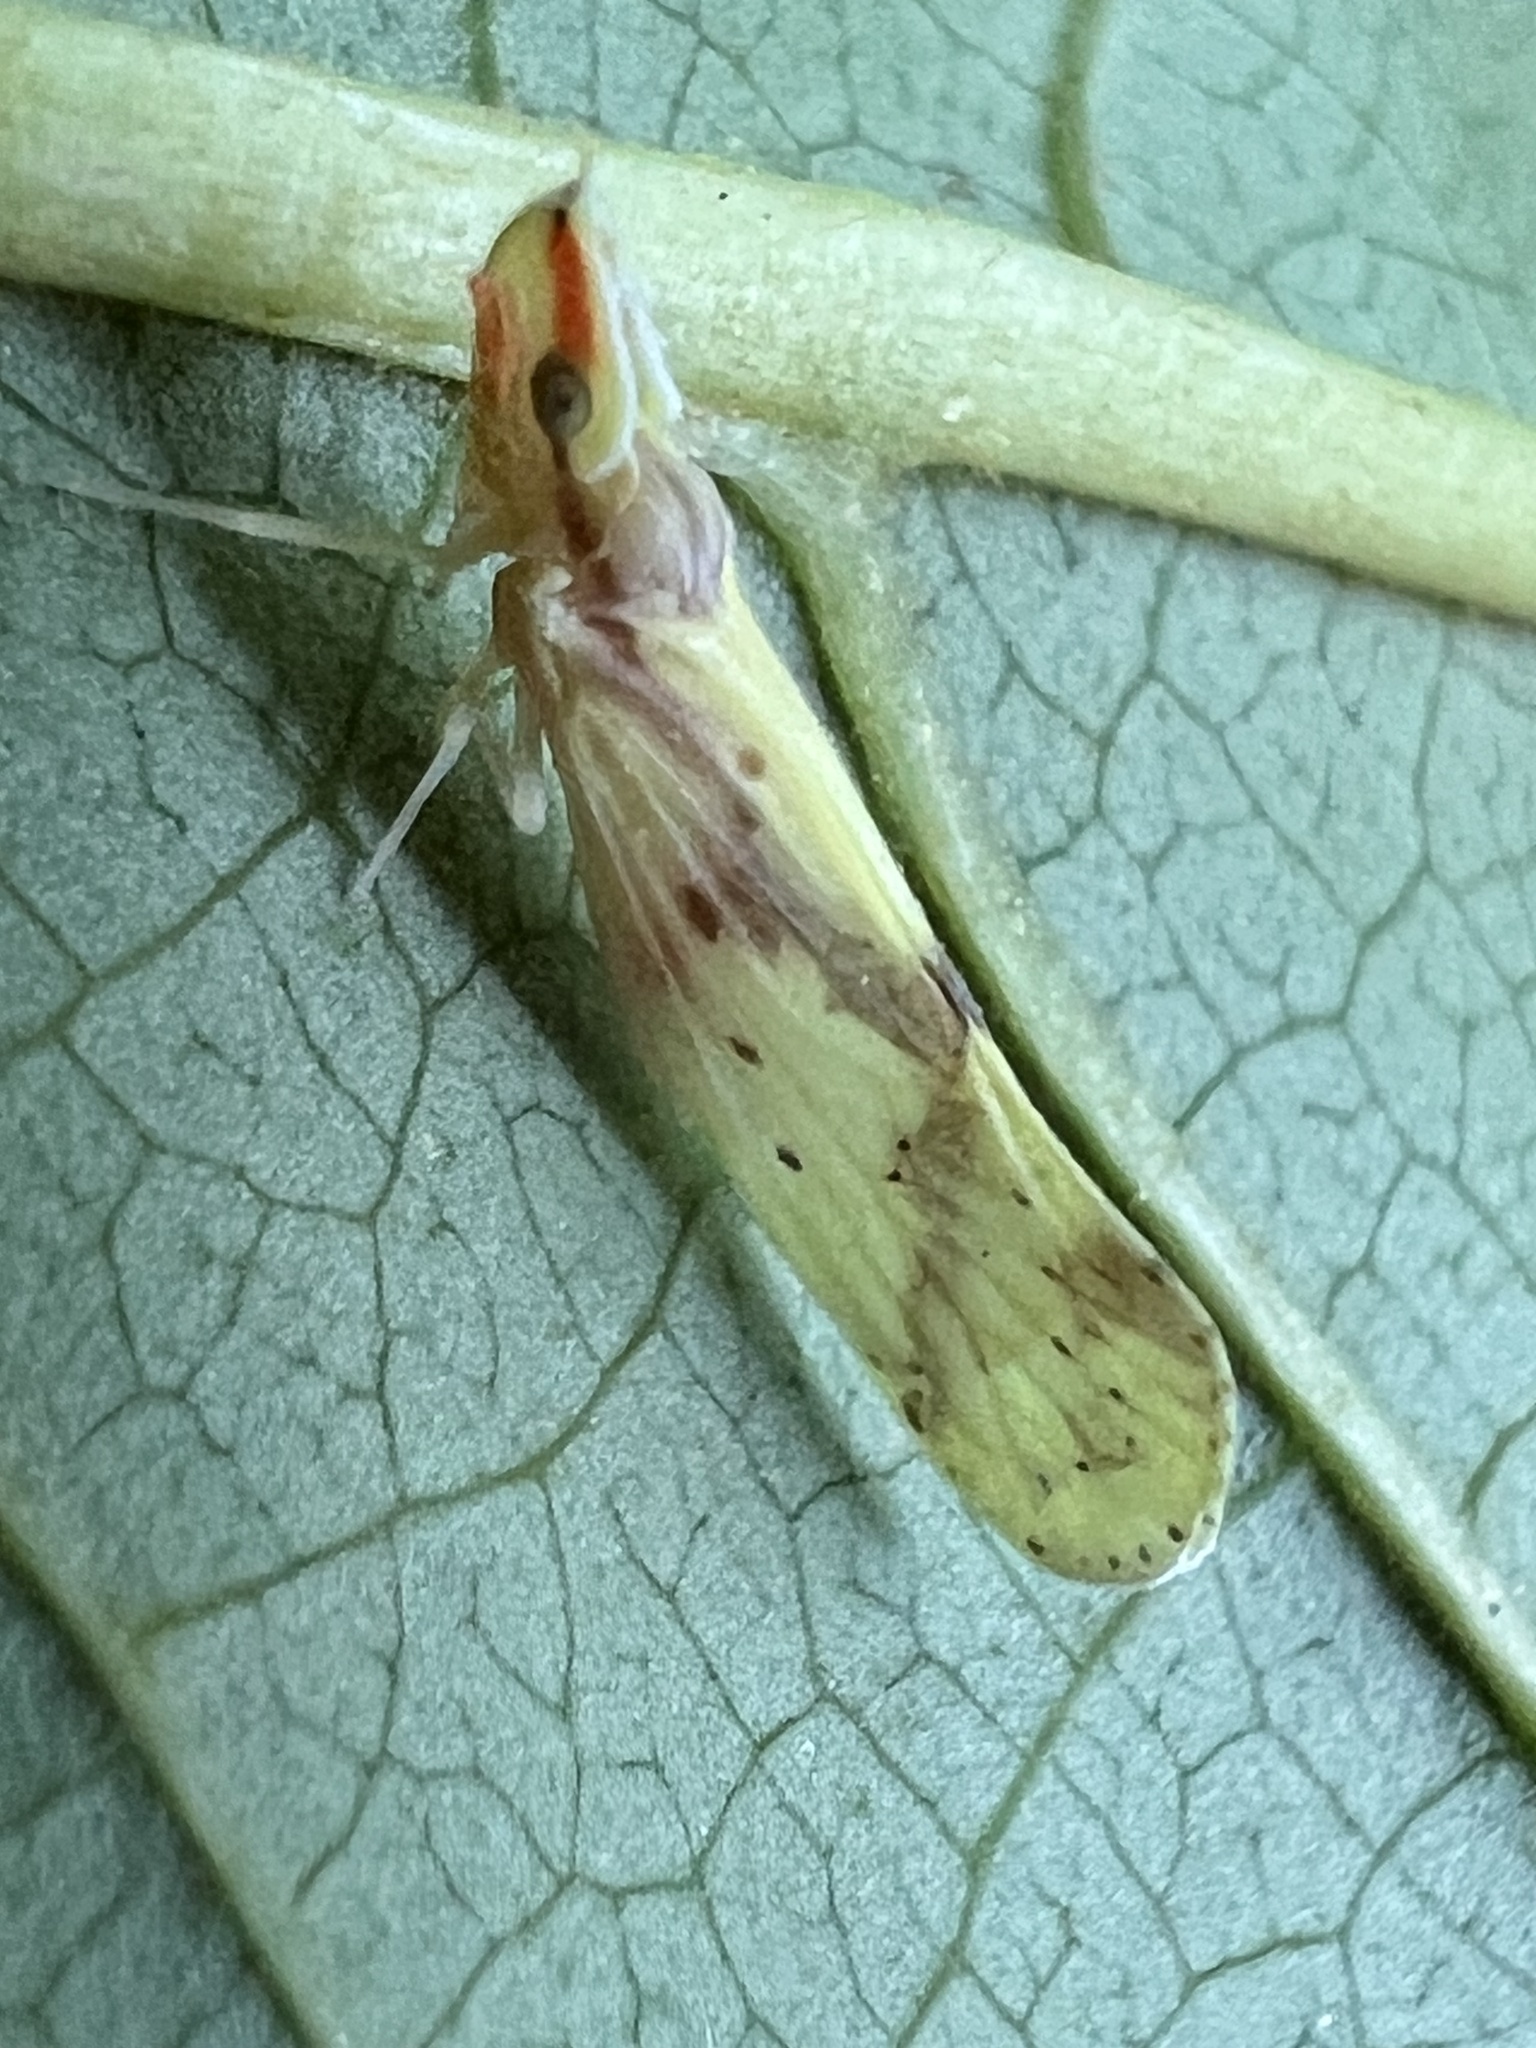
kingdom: Animalia
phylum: Arthropoda
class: Insecta
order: Hemiptera
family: Derbidae
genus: Otiocerus
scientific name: Otiocerus wolfii
